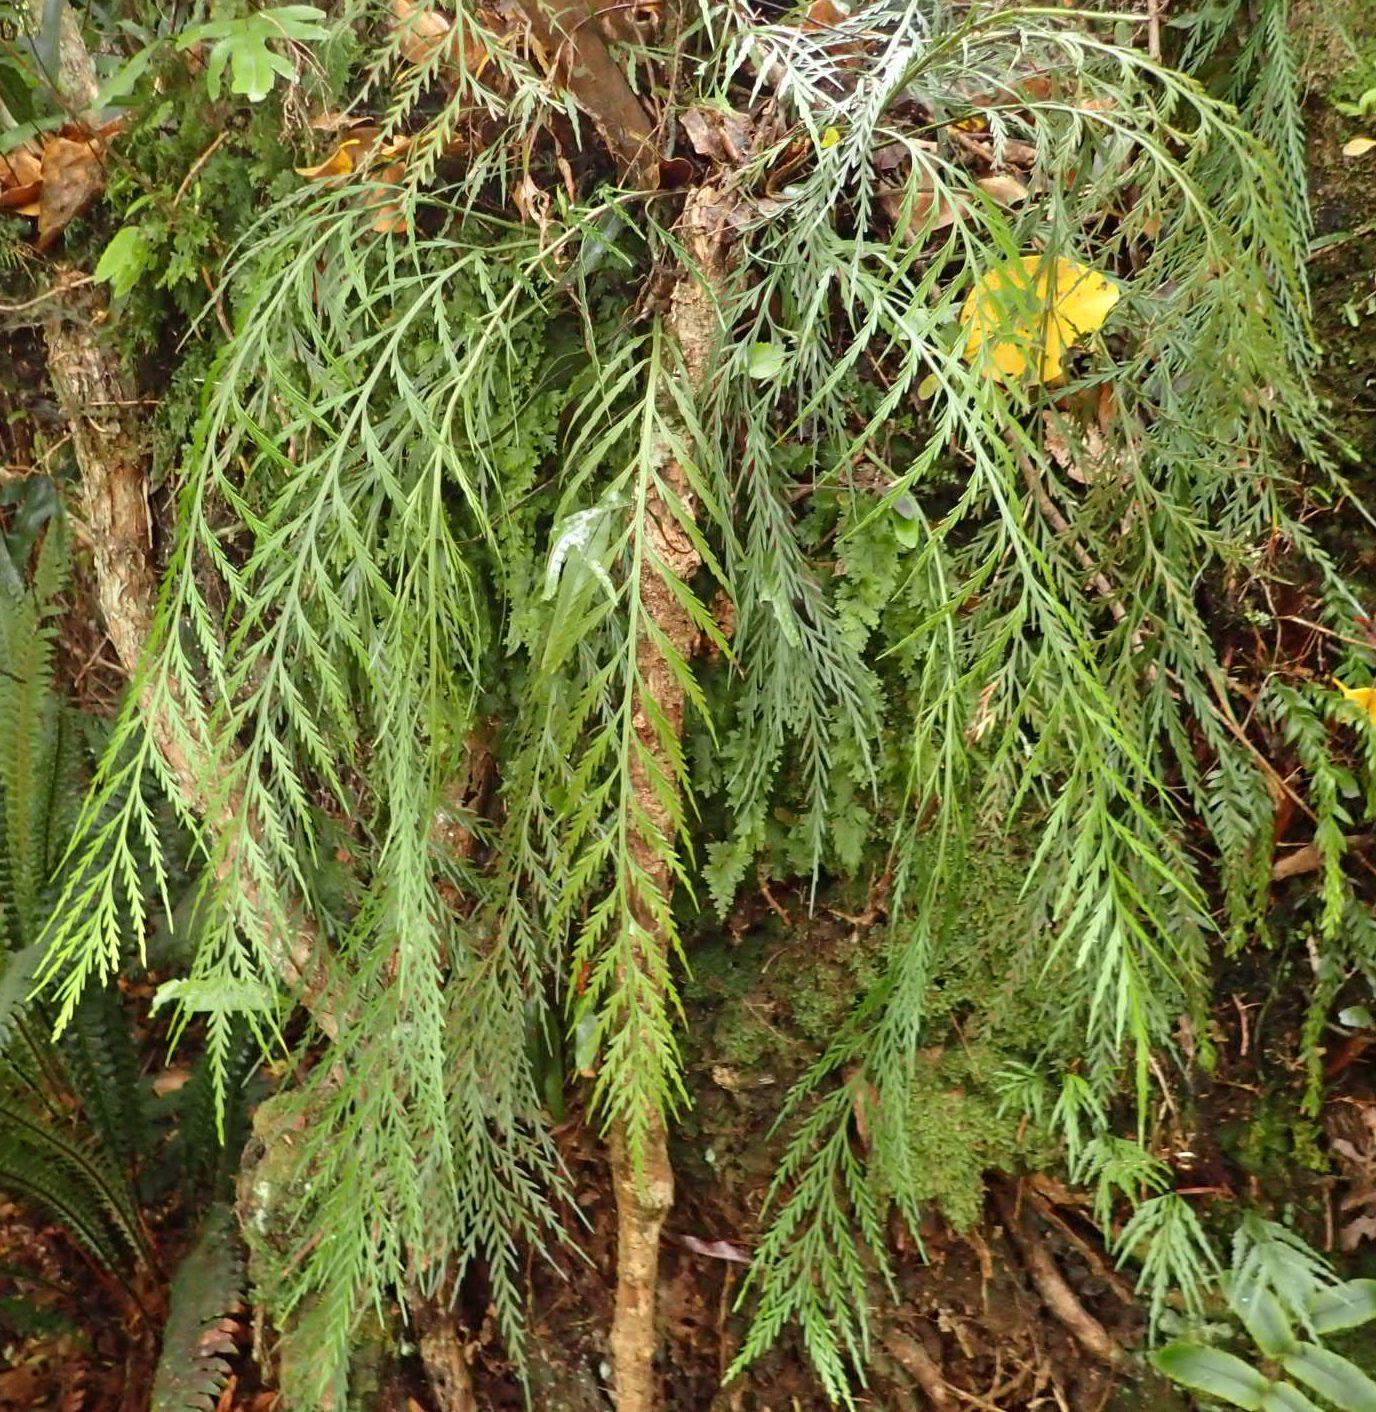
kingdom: Plantae
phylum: Tracheophyta
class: Polypodiopsida
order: Polypodiales
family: Aspleniaceae
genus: Asplenium
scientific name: Asplenium flaccidum
